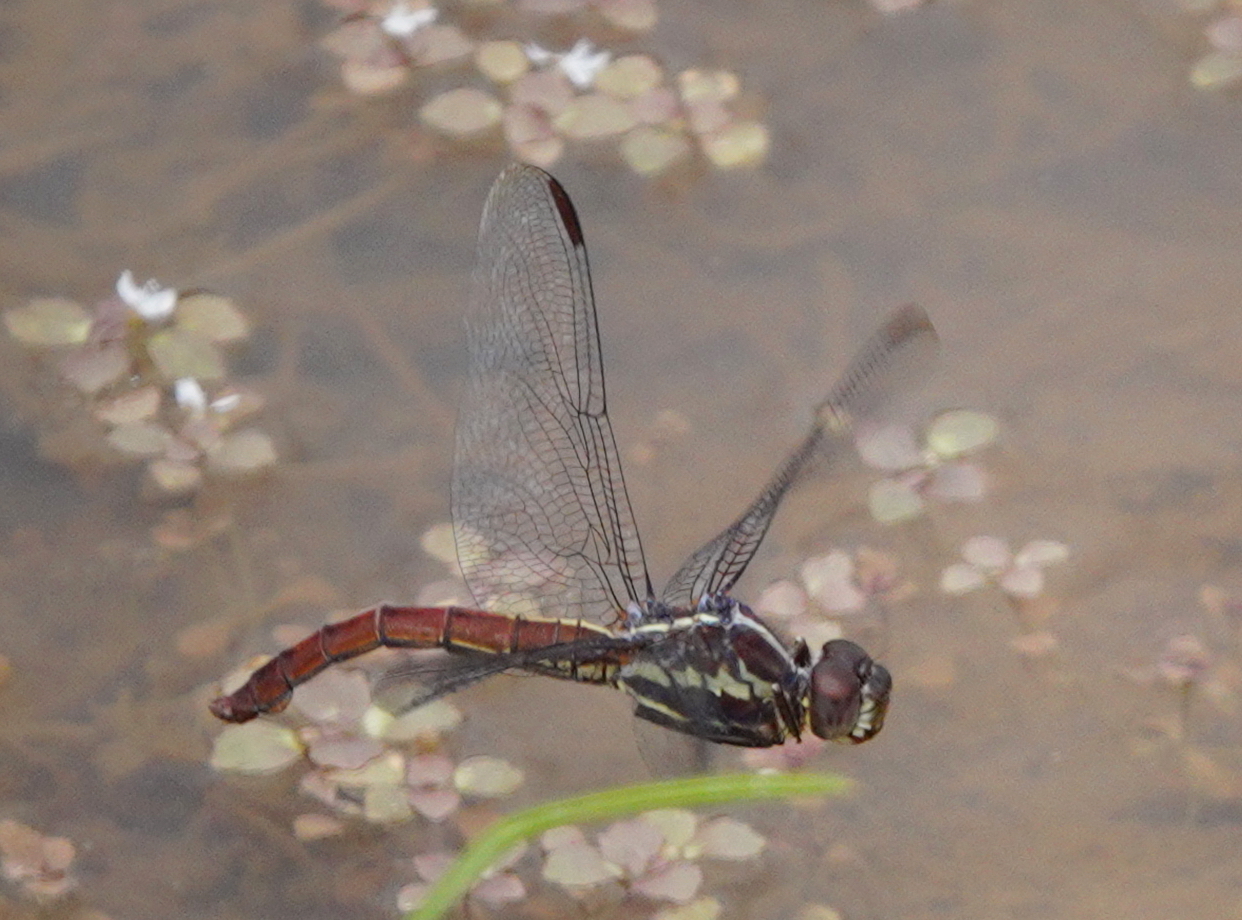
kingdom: Animalia
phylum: Arthropoda
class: Insecta
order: Odonata
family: Libellulidae
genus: Orthemis
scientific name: Orthemis aequilibris
